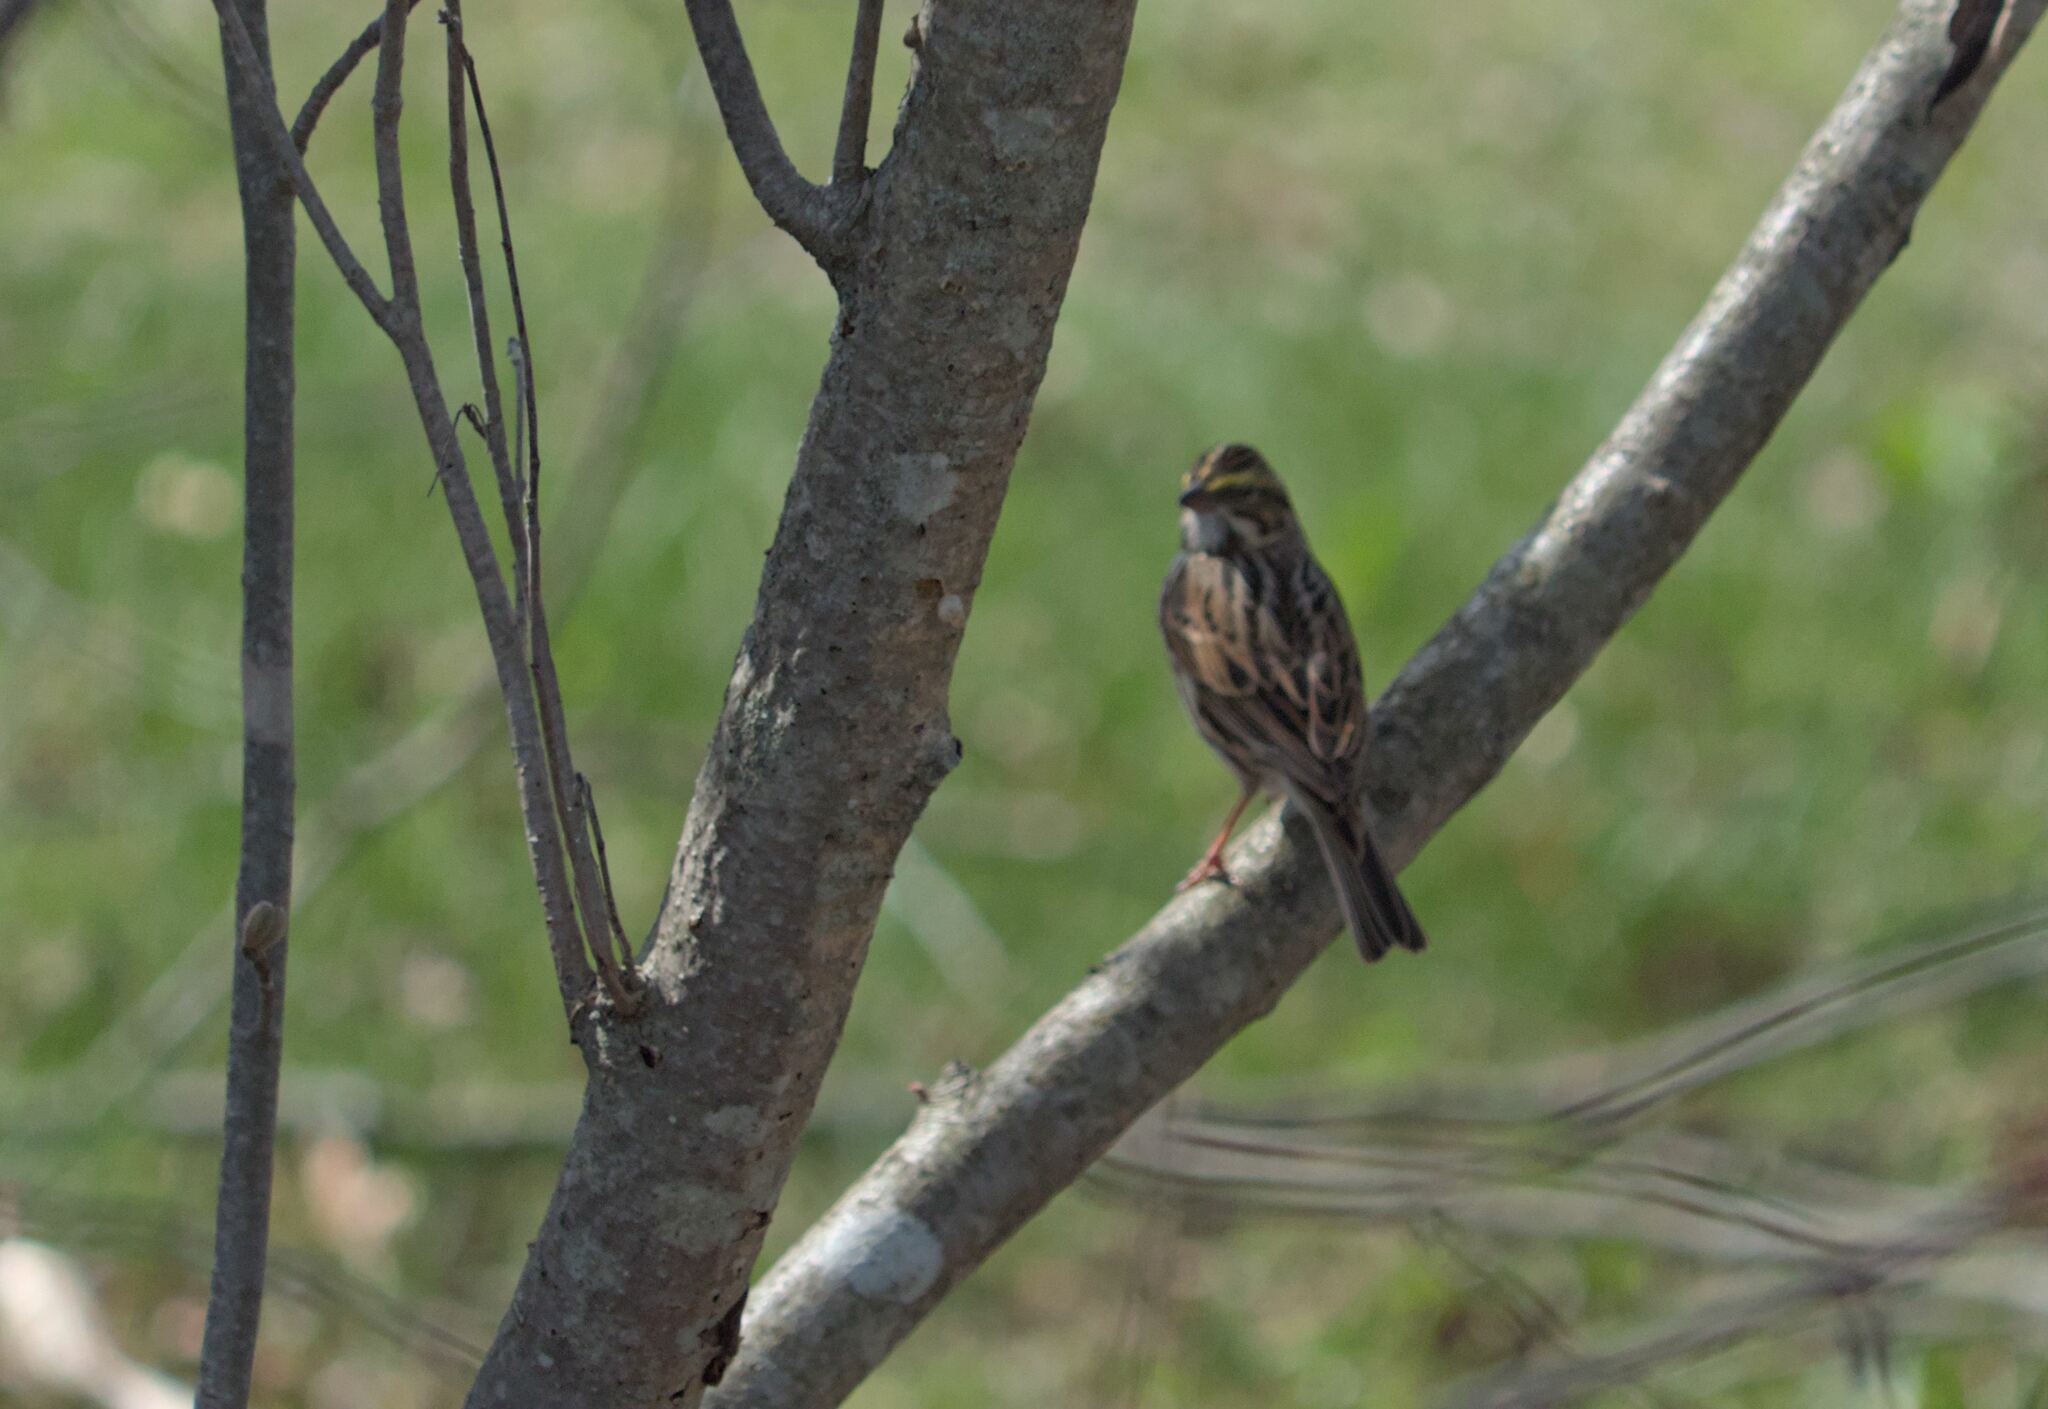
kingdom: Animalia
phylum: Chordata
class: Aves
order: Passeriformes
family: Passerellidae
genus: Passerculus
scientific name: Passerculus sandwichensis
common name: Savannah sparrow
